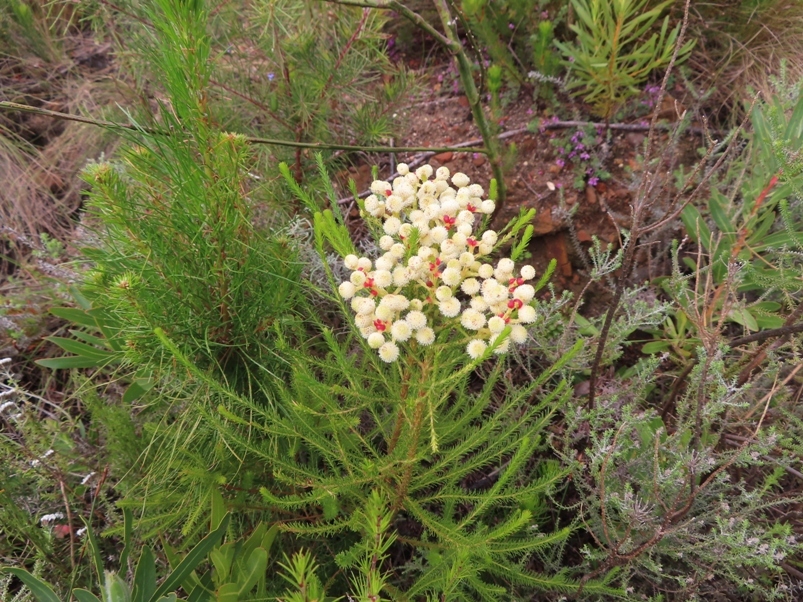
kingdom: Plantae
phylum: Tracheophyta
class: Magnoliopsida
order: Bruniales
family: Bruniaceae
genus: Berzelia
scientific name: Berzelia lanuginosa
